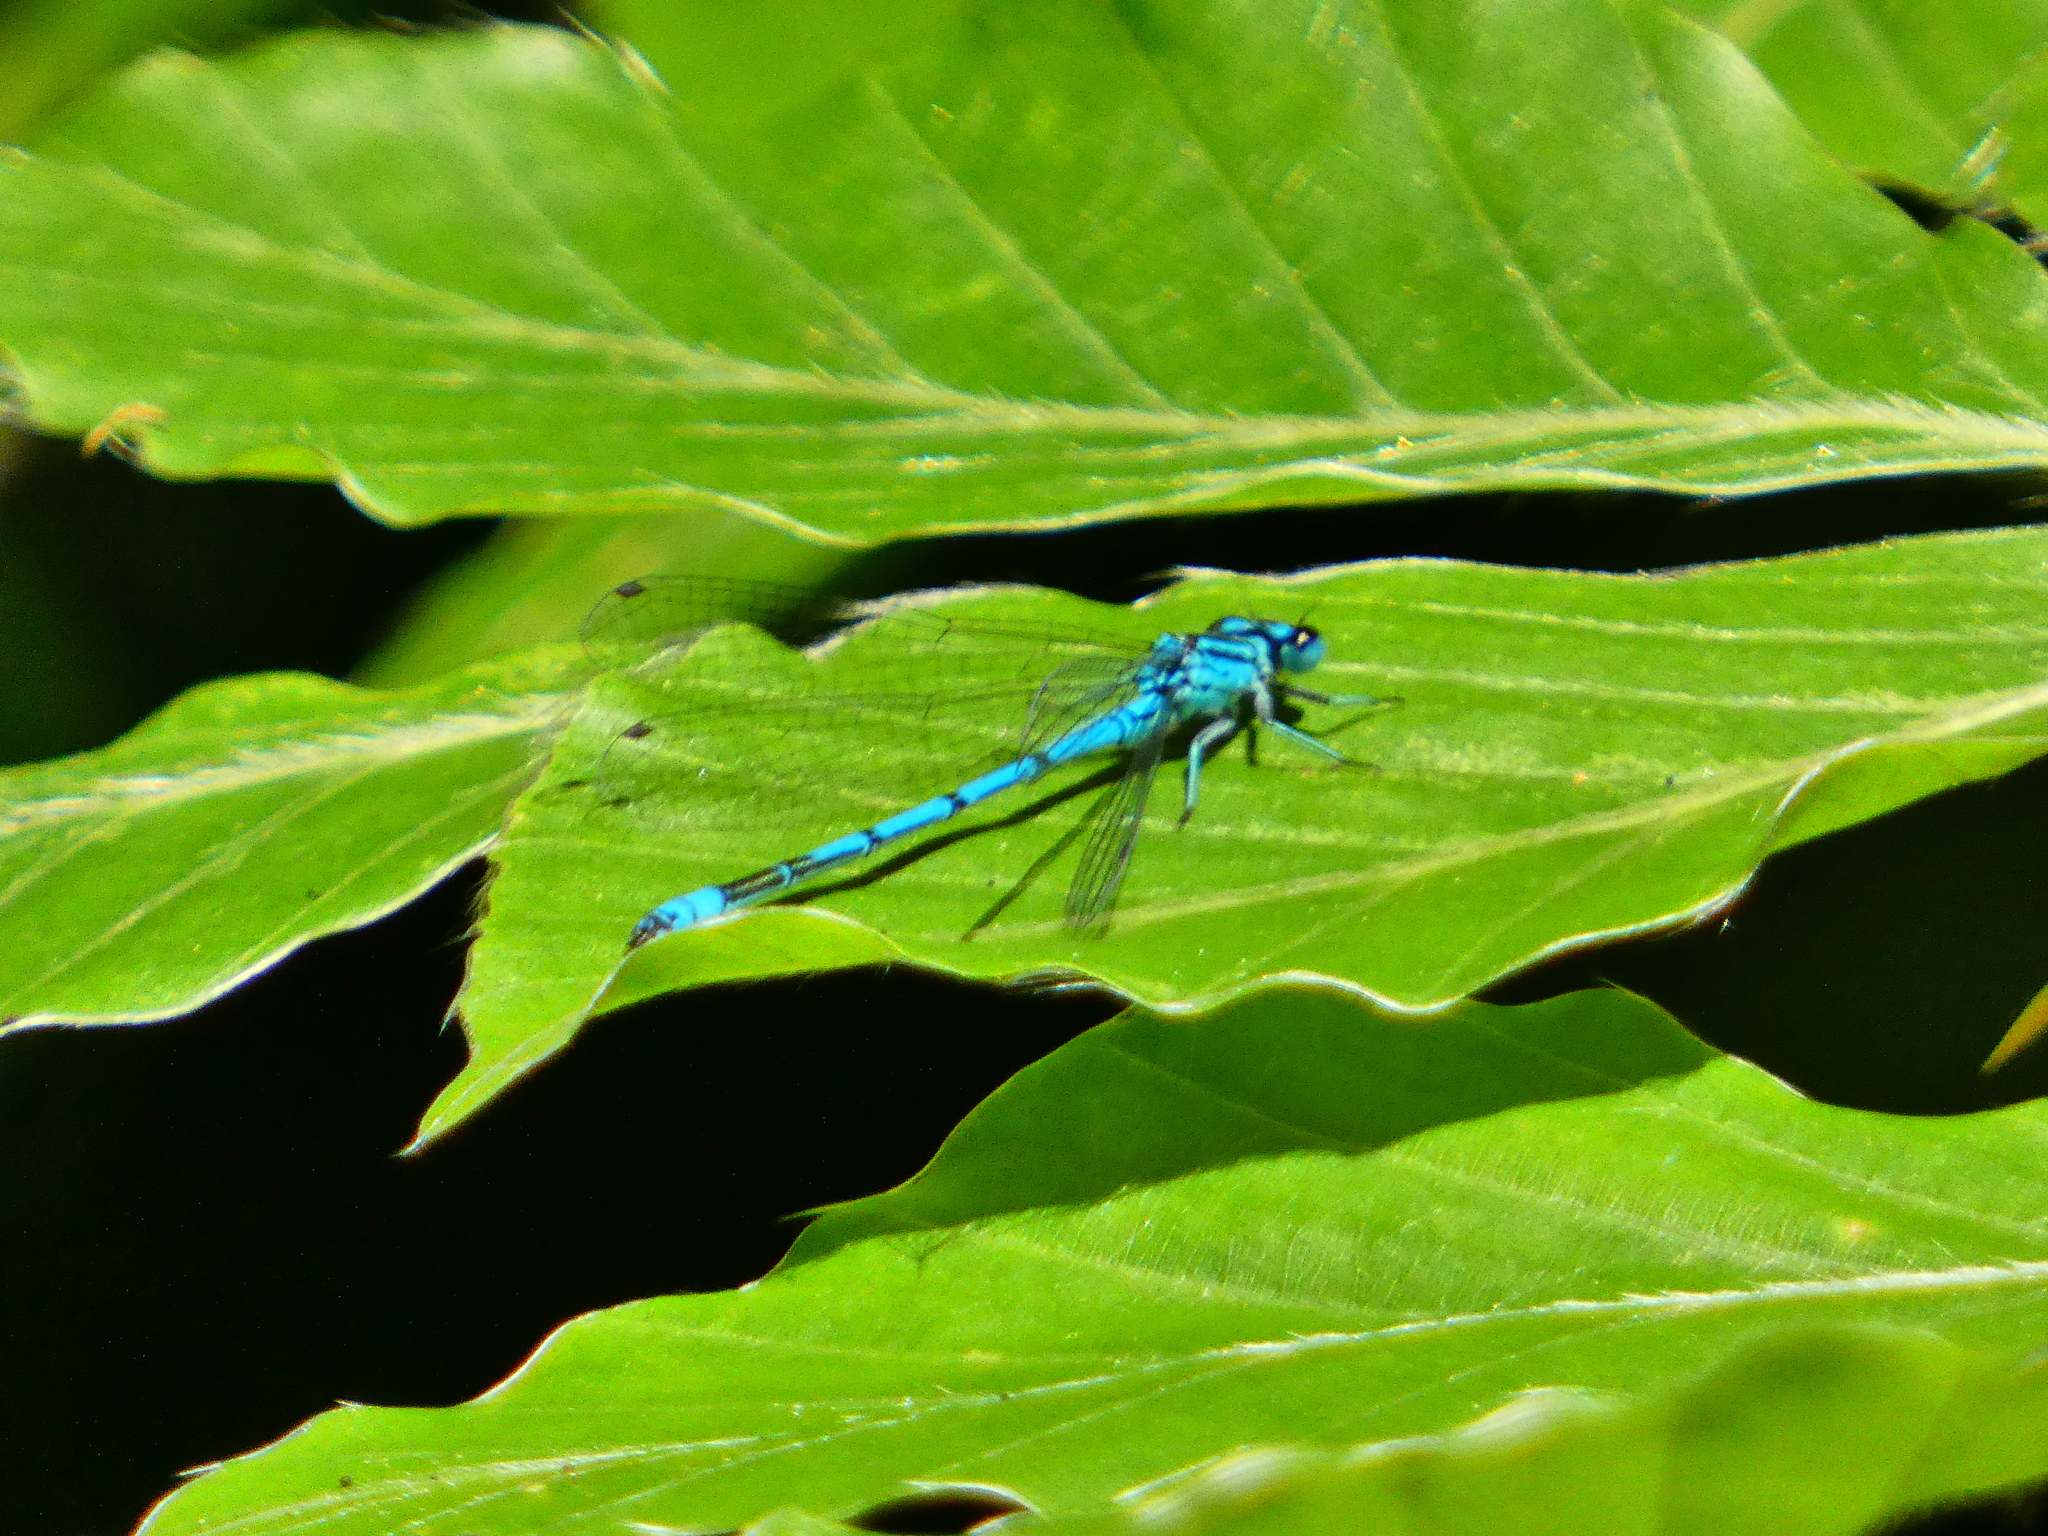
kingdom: Animalia
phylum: Arthropoda
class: Insecta
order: Odonata
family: Coenagrionidae
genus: Coenagrion
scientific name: Coenagrion puella
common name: Azure damselfly
